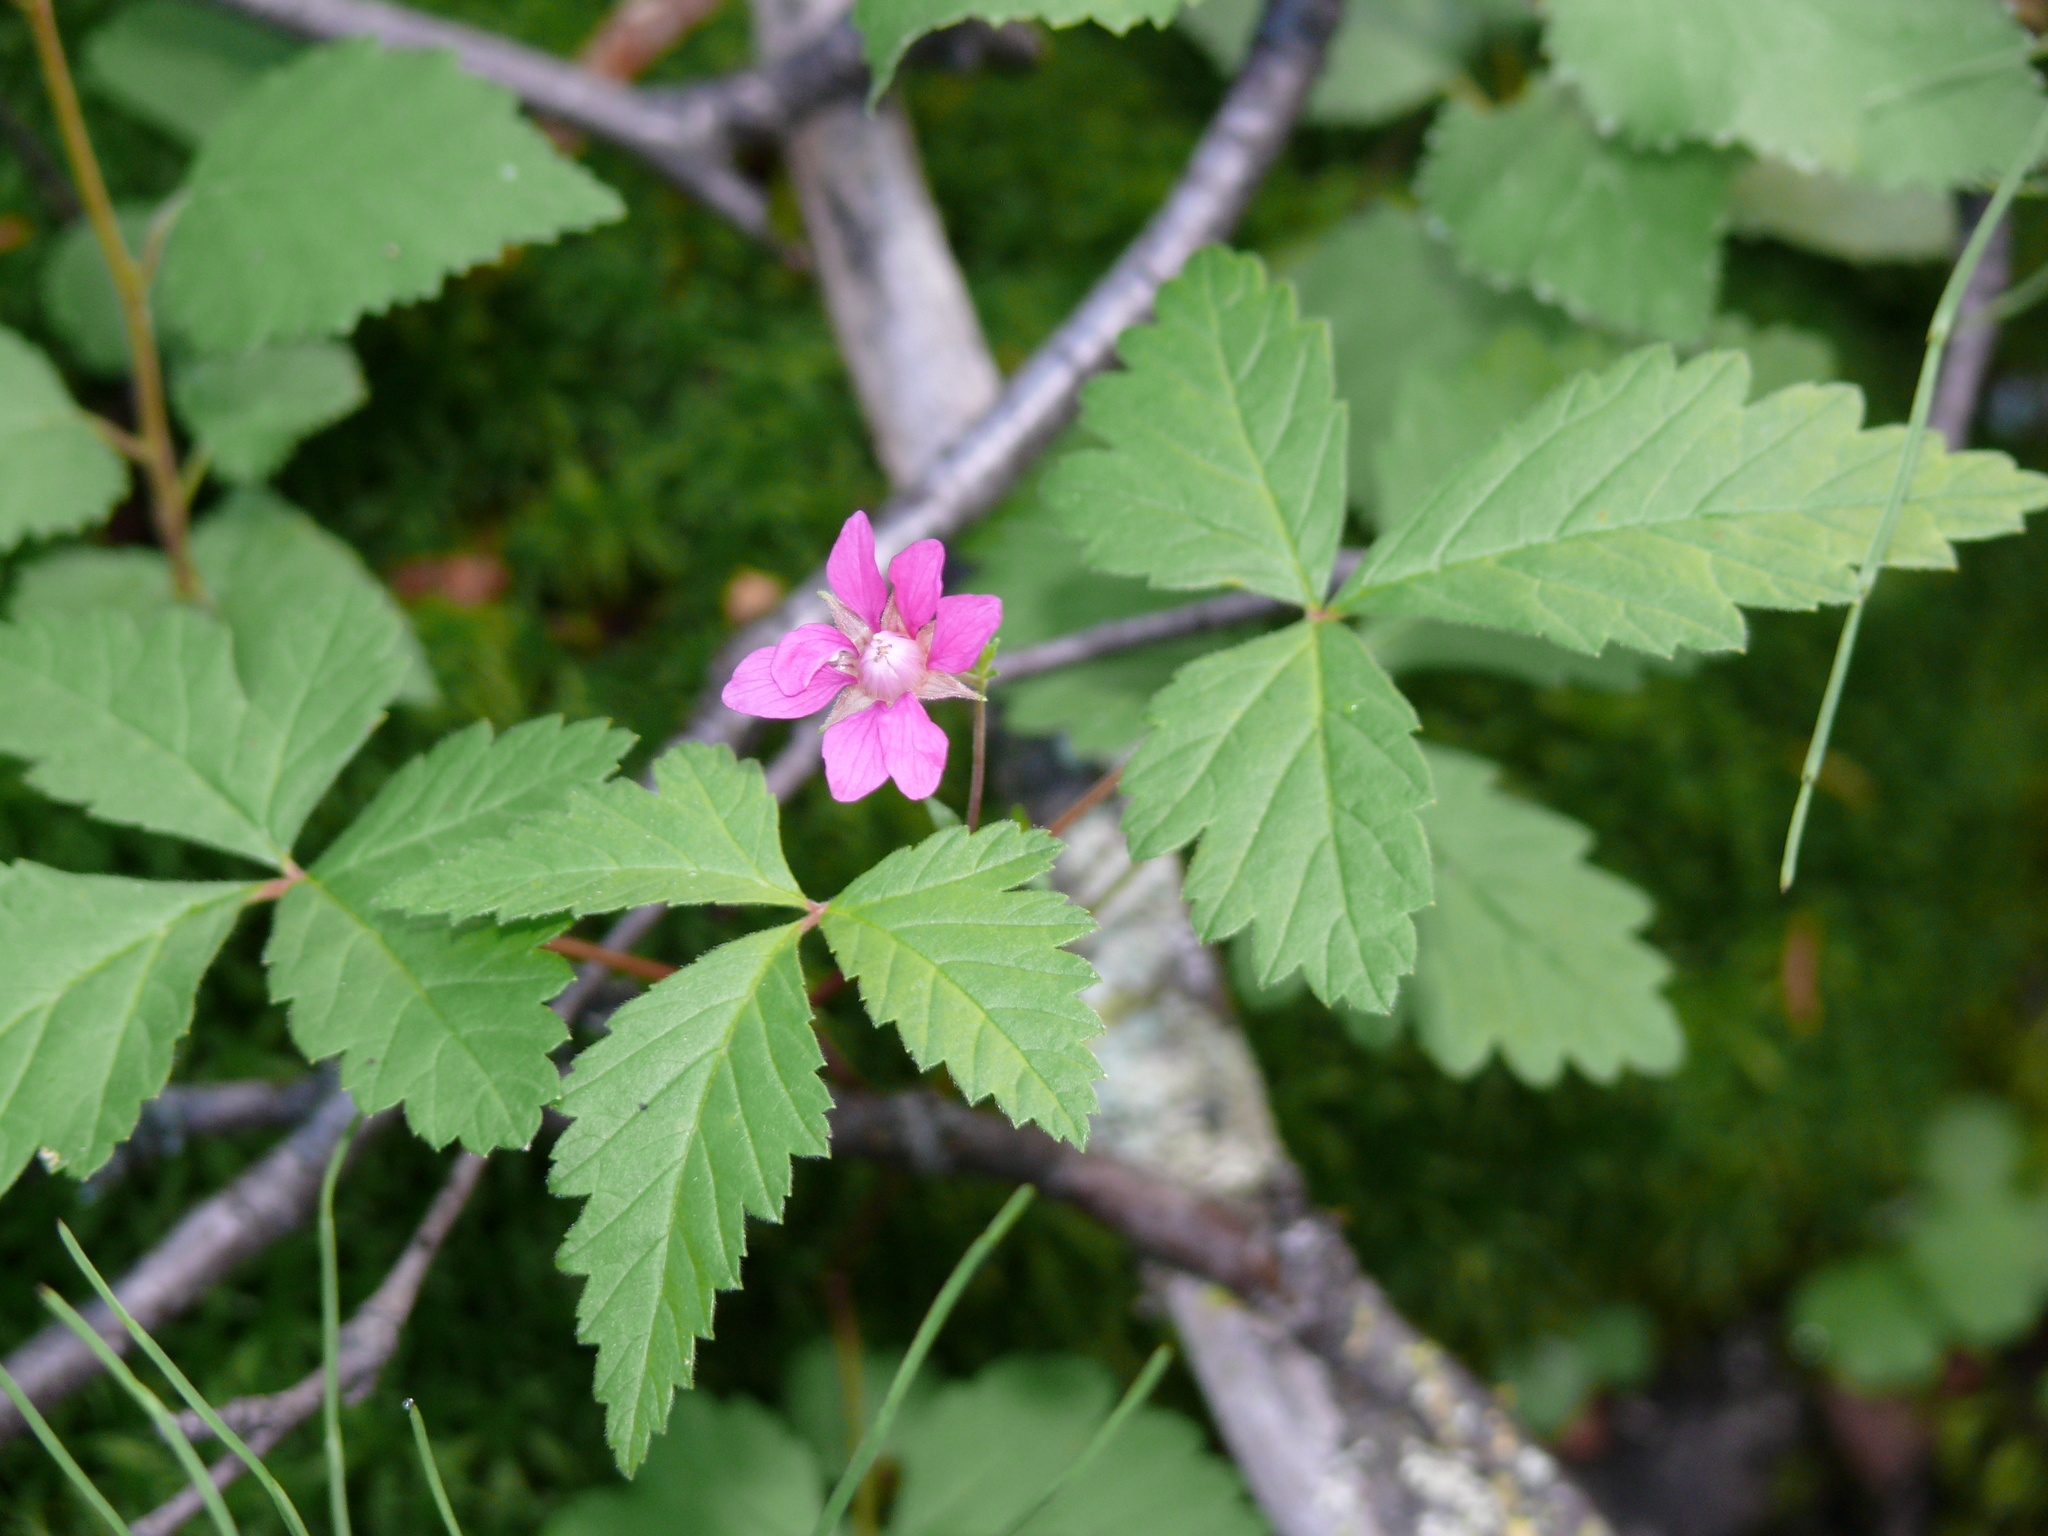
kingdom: Plantae
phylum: Tracheophyta
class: Magnoliopsida
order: Rosales
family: Rosaceae
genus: Rubus
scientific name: Rubus arcticus
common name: Arctic bramble
